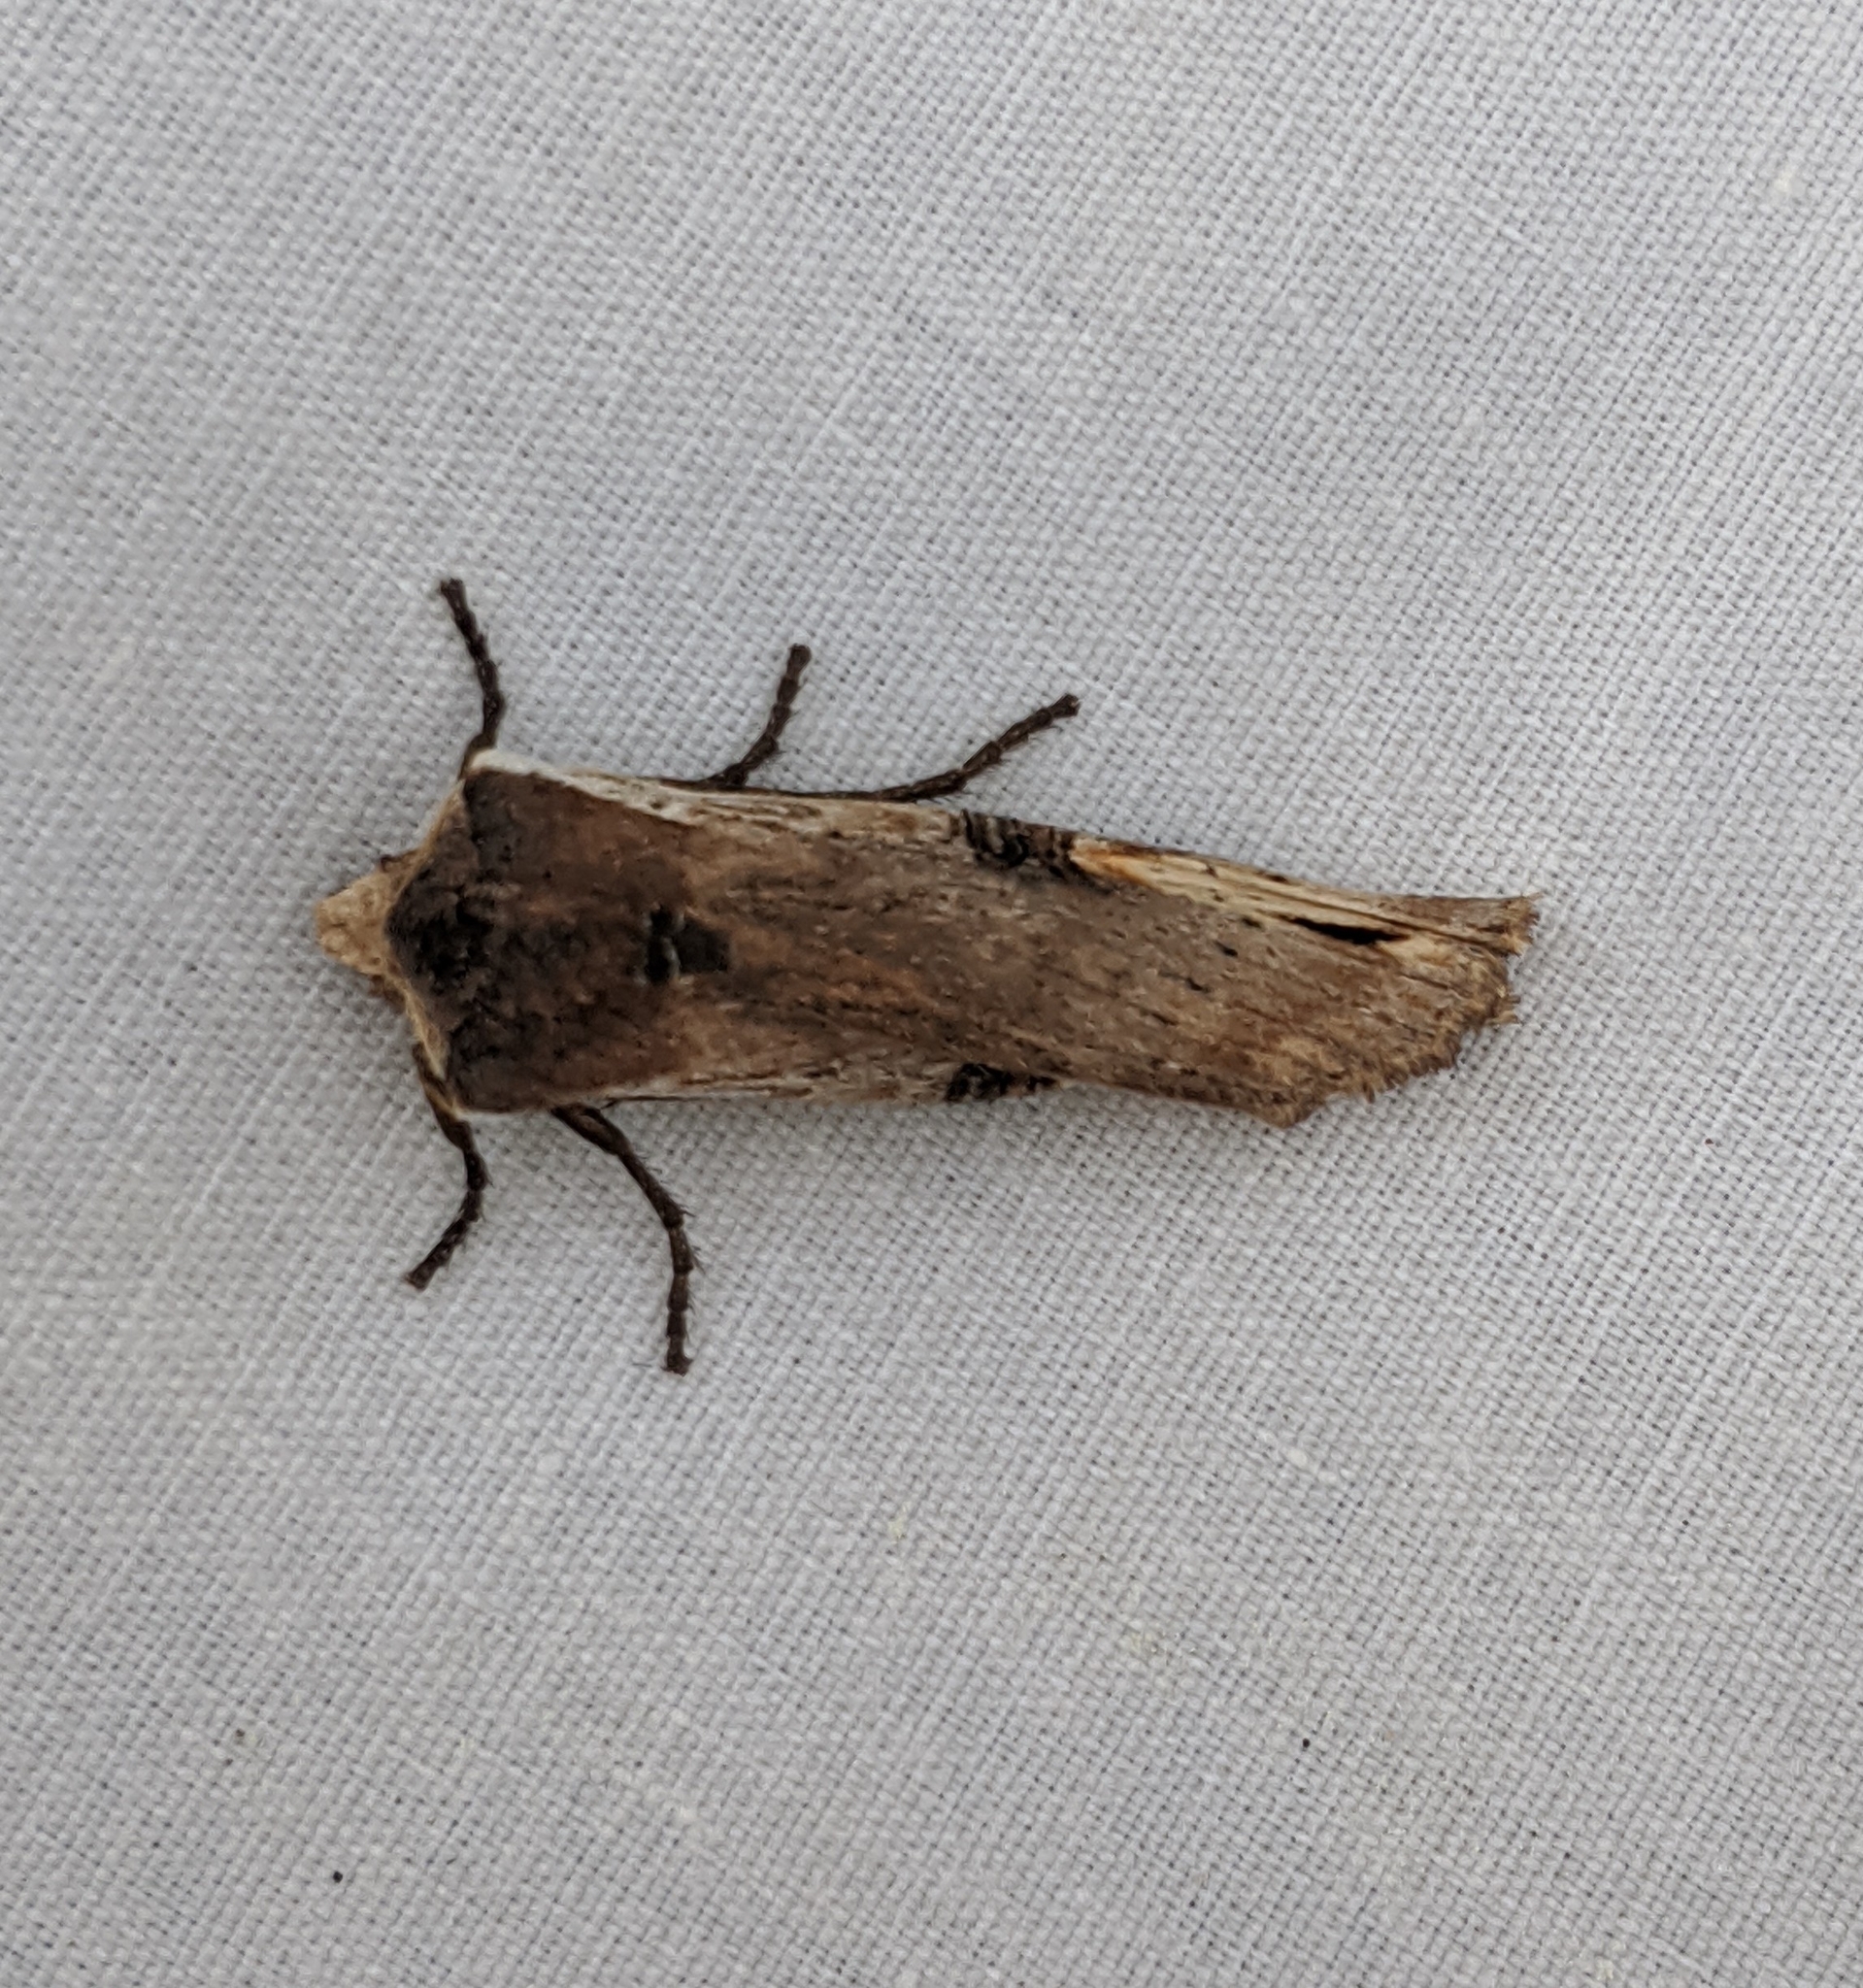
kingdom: Animalia
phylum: Arthropoda
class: Insecta
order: Lepidoptera
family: Noctuidae
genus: Xylena
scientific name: Xylena curvimacula
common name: Dot-and-dash swordgrass moth
